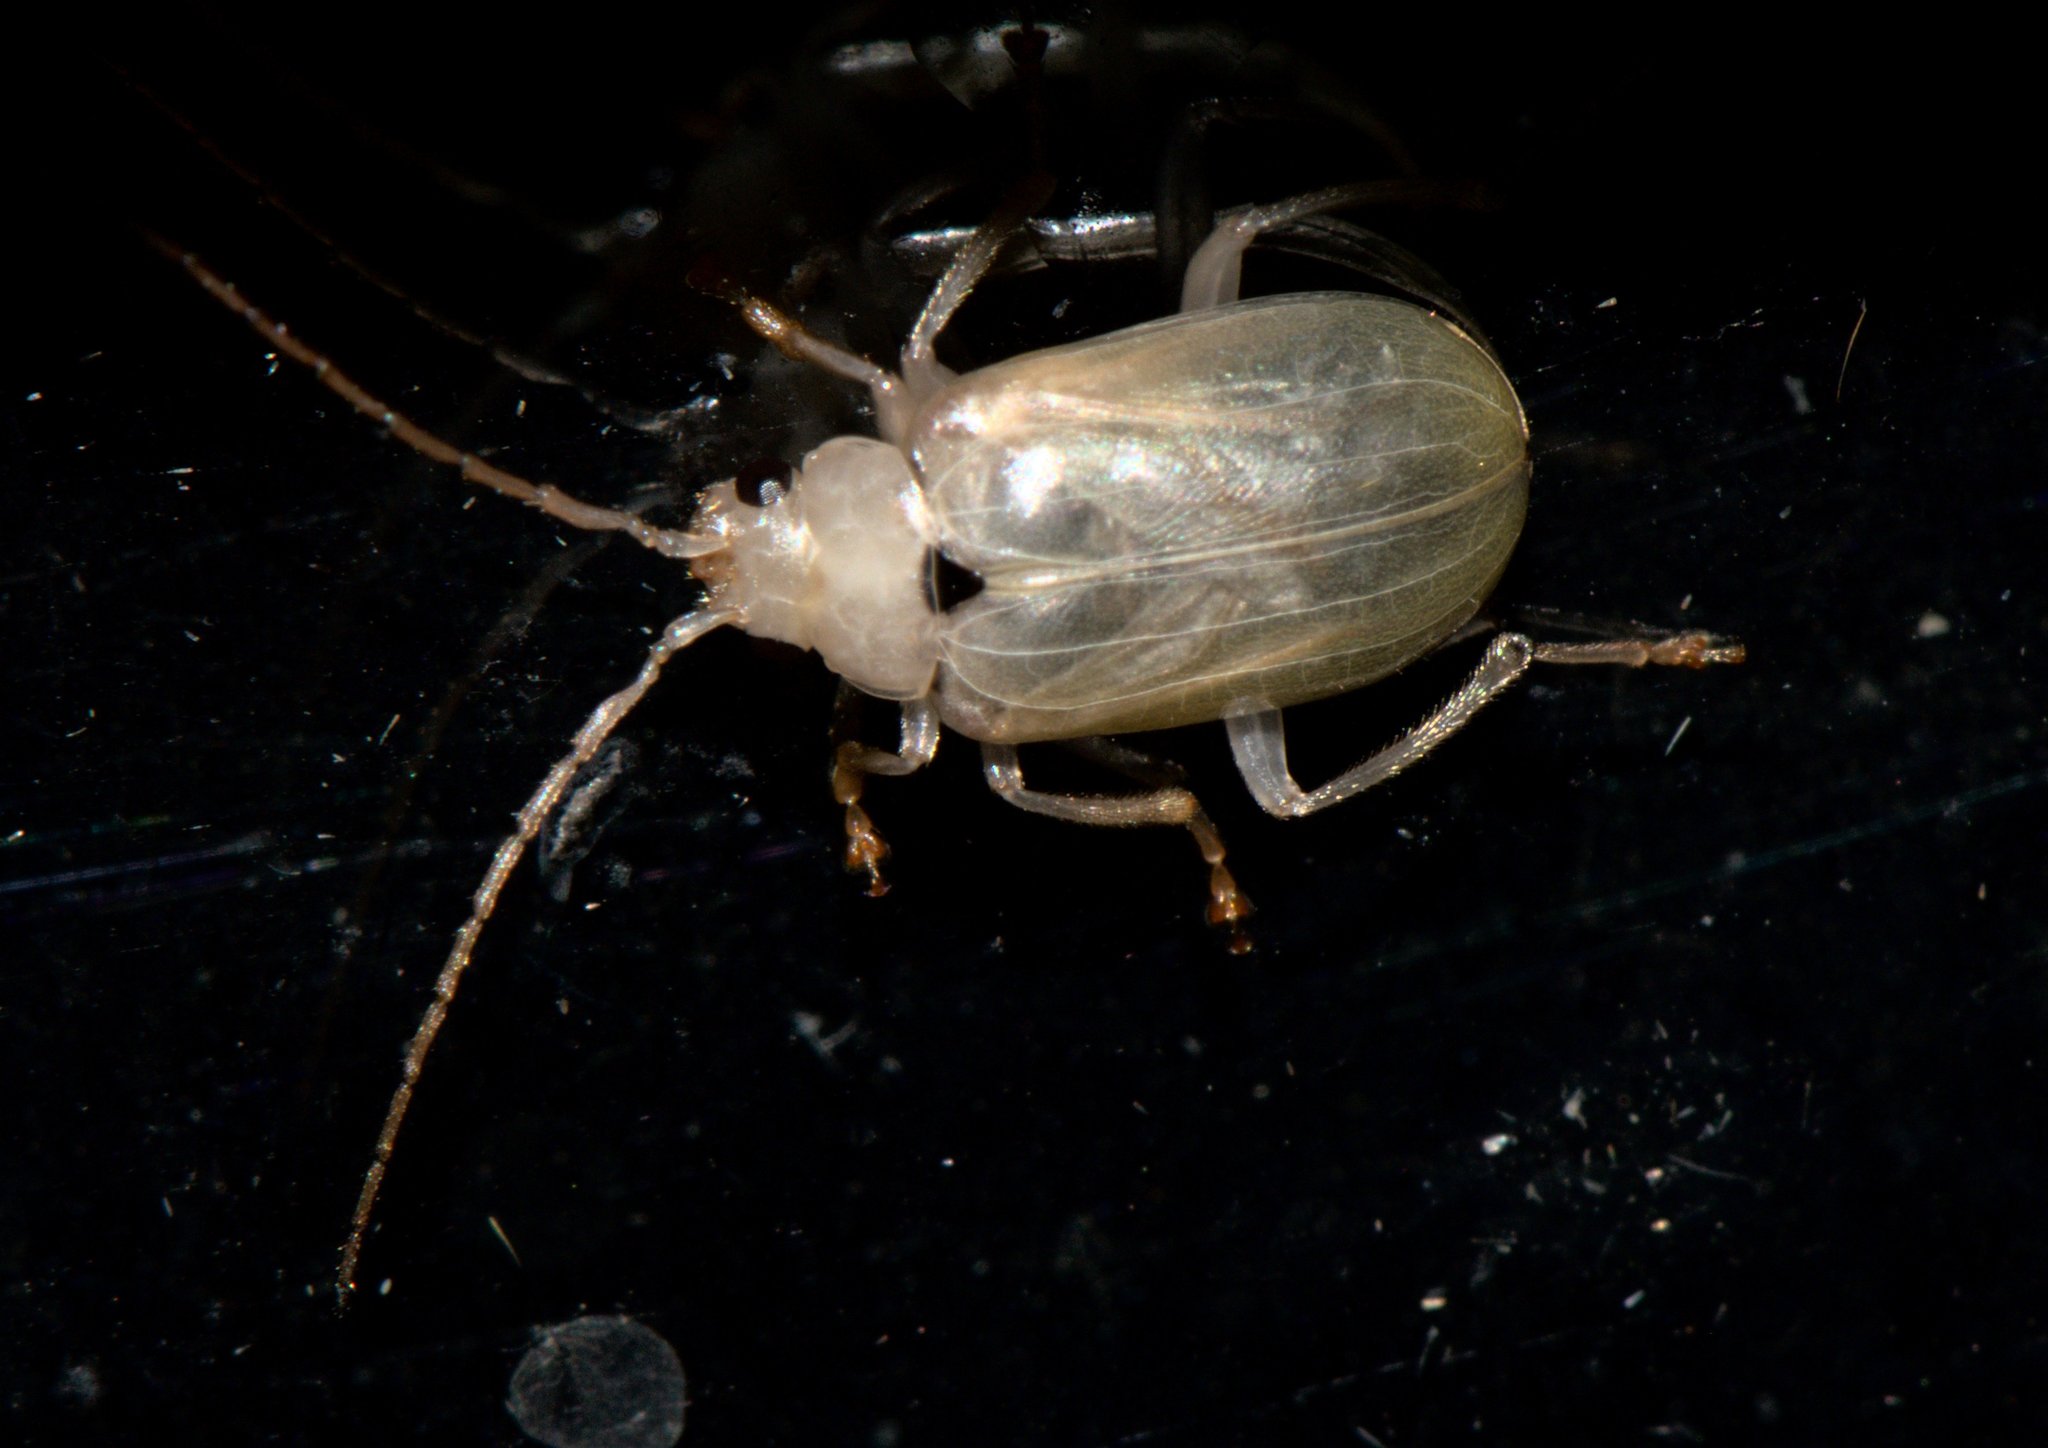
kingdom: Animalia
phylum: Arthropoda
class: Insecta
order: Coleoptera
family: Chrysomelidae
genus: Macrima
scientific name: Macrima
